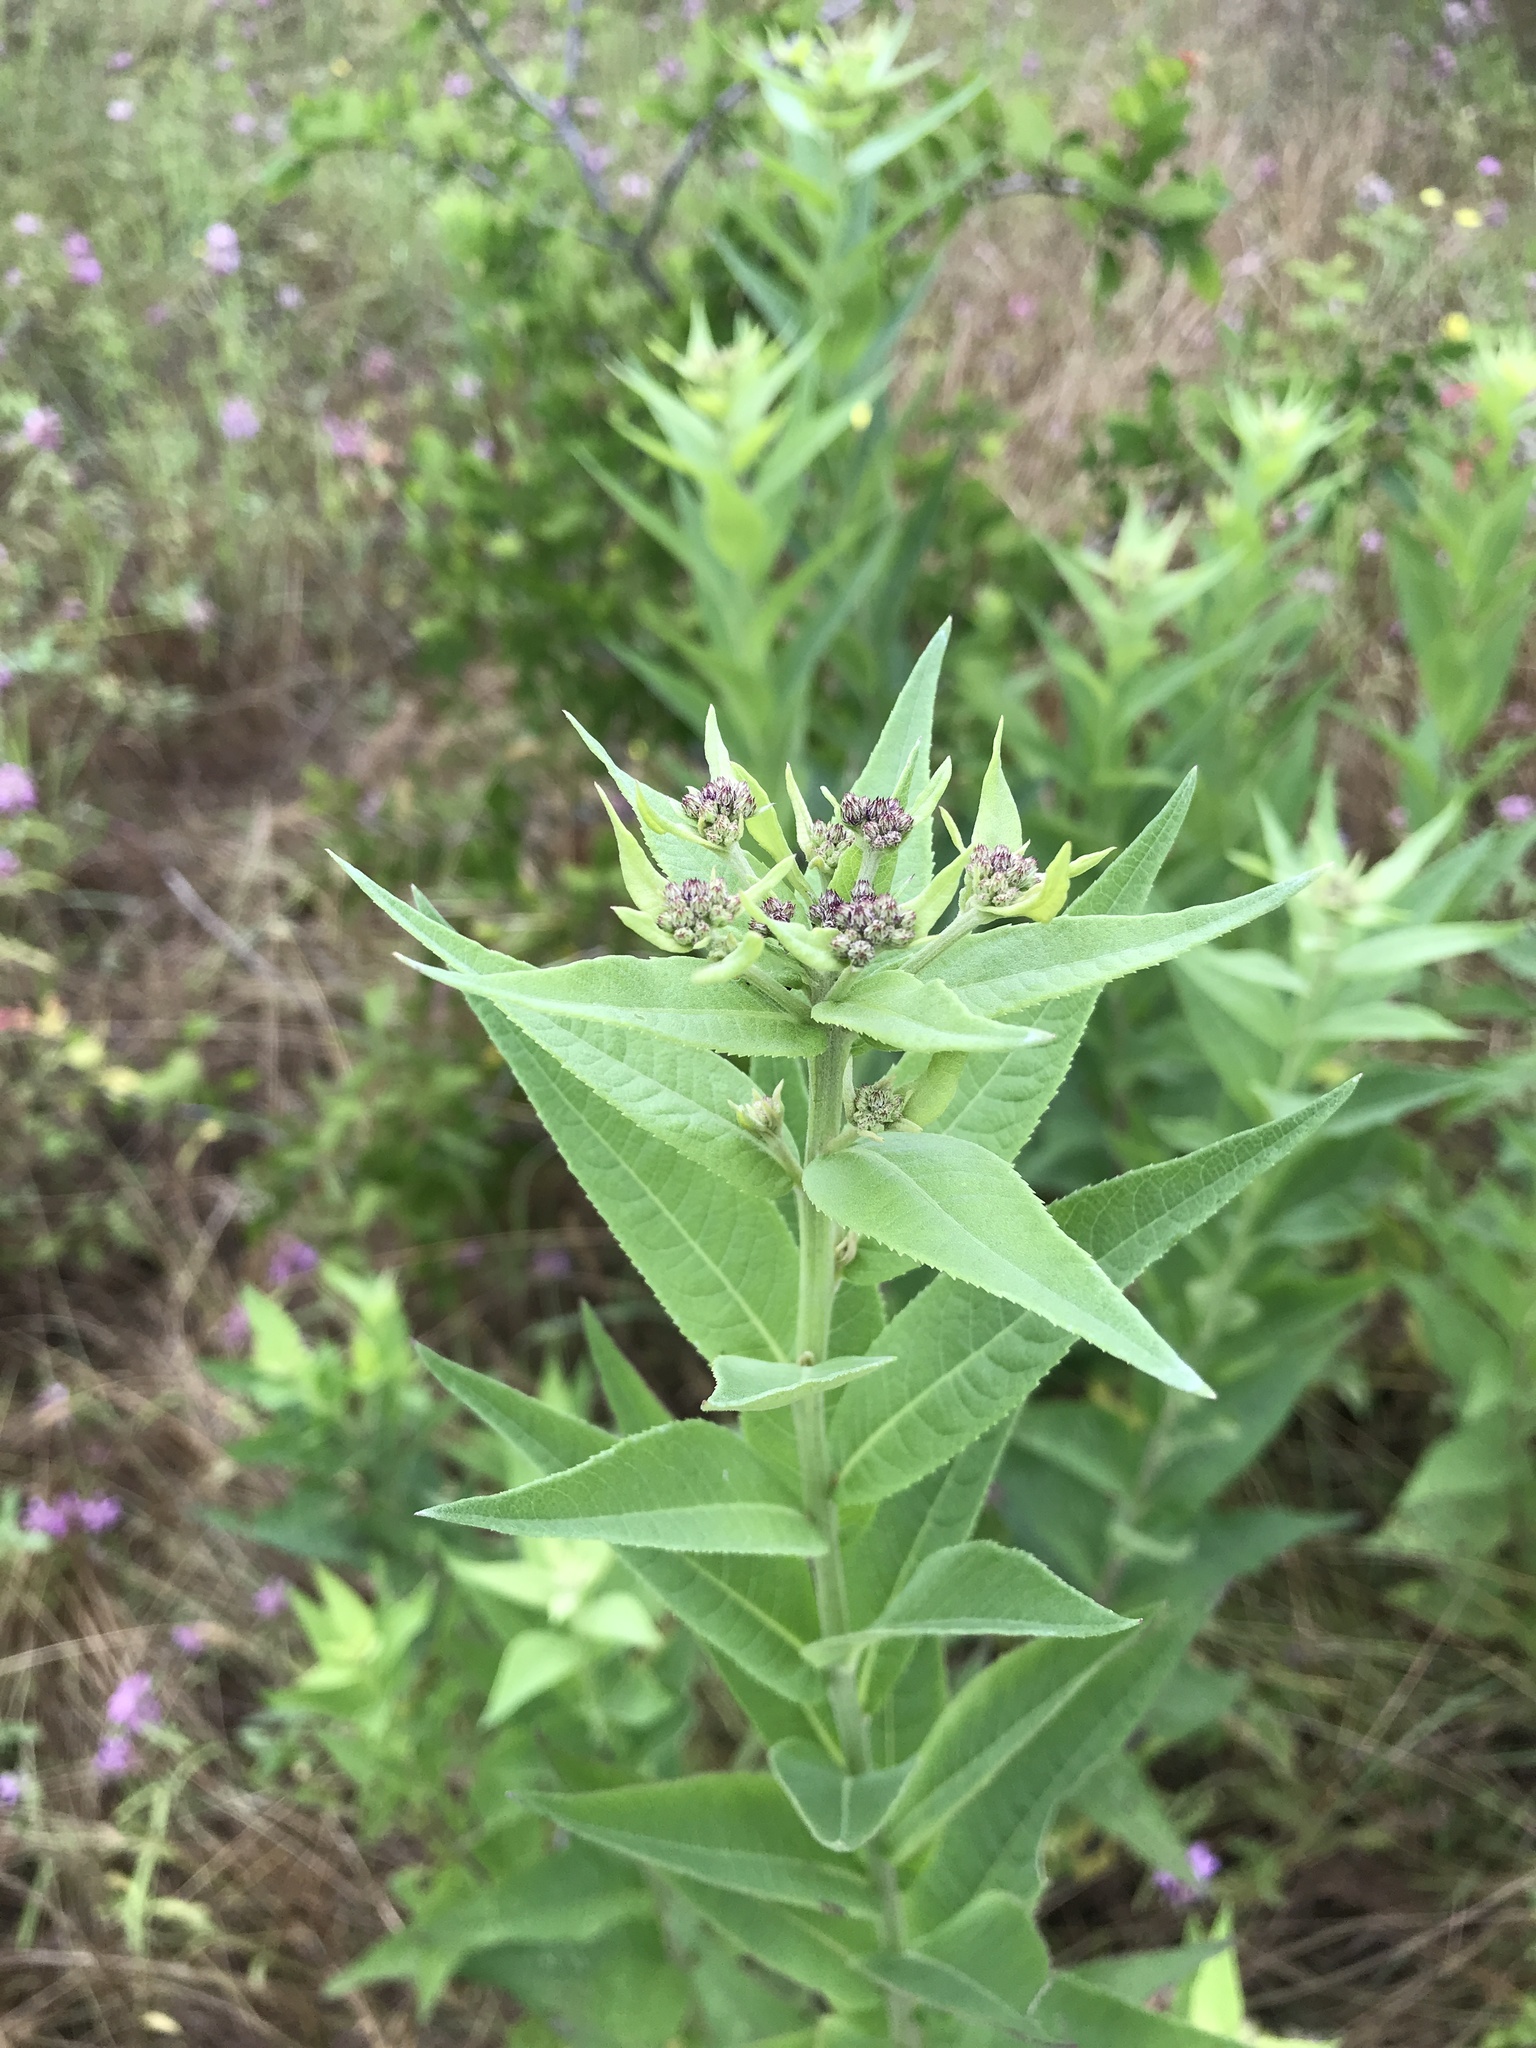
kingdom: Plantae
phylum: Tracheophyta
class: Magnoliopsida
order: Asterales
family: Asteraceae
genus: Vernonia
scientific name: Vernonia baldwinii
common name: Western ironweed
